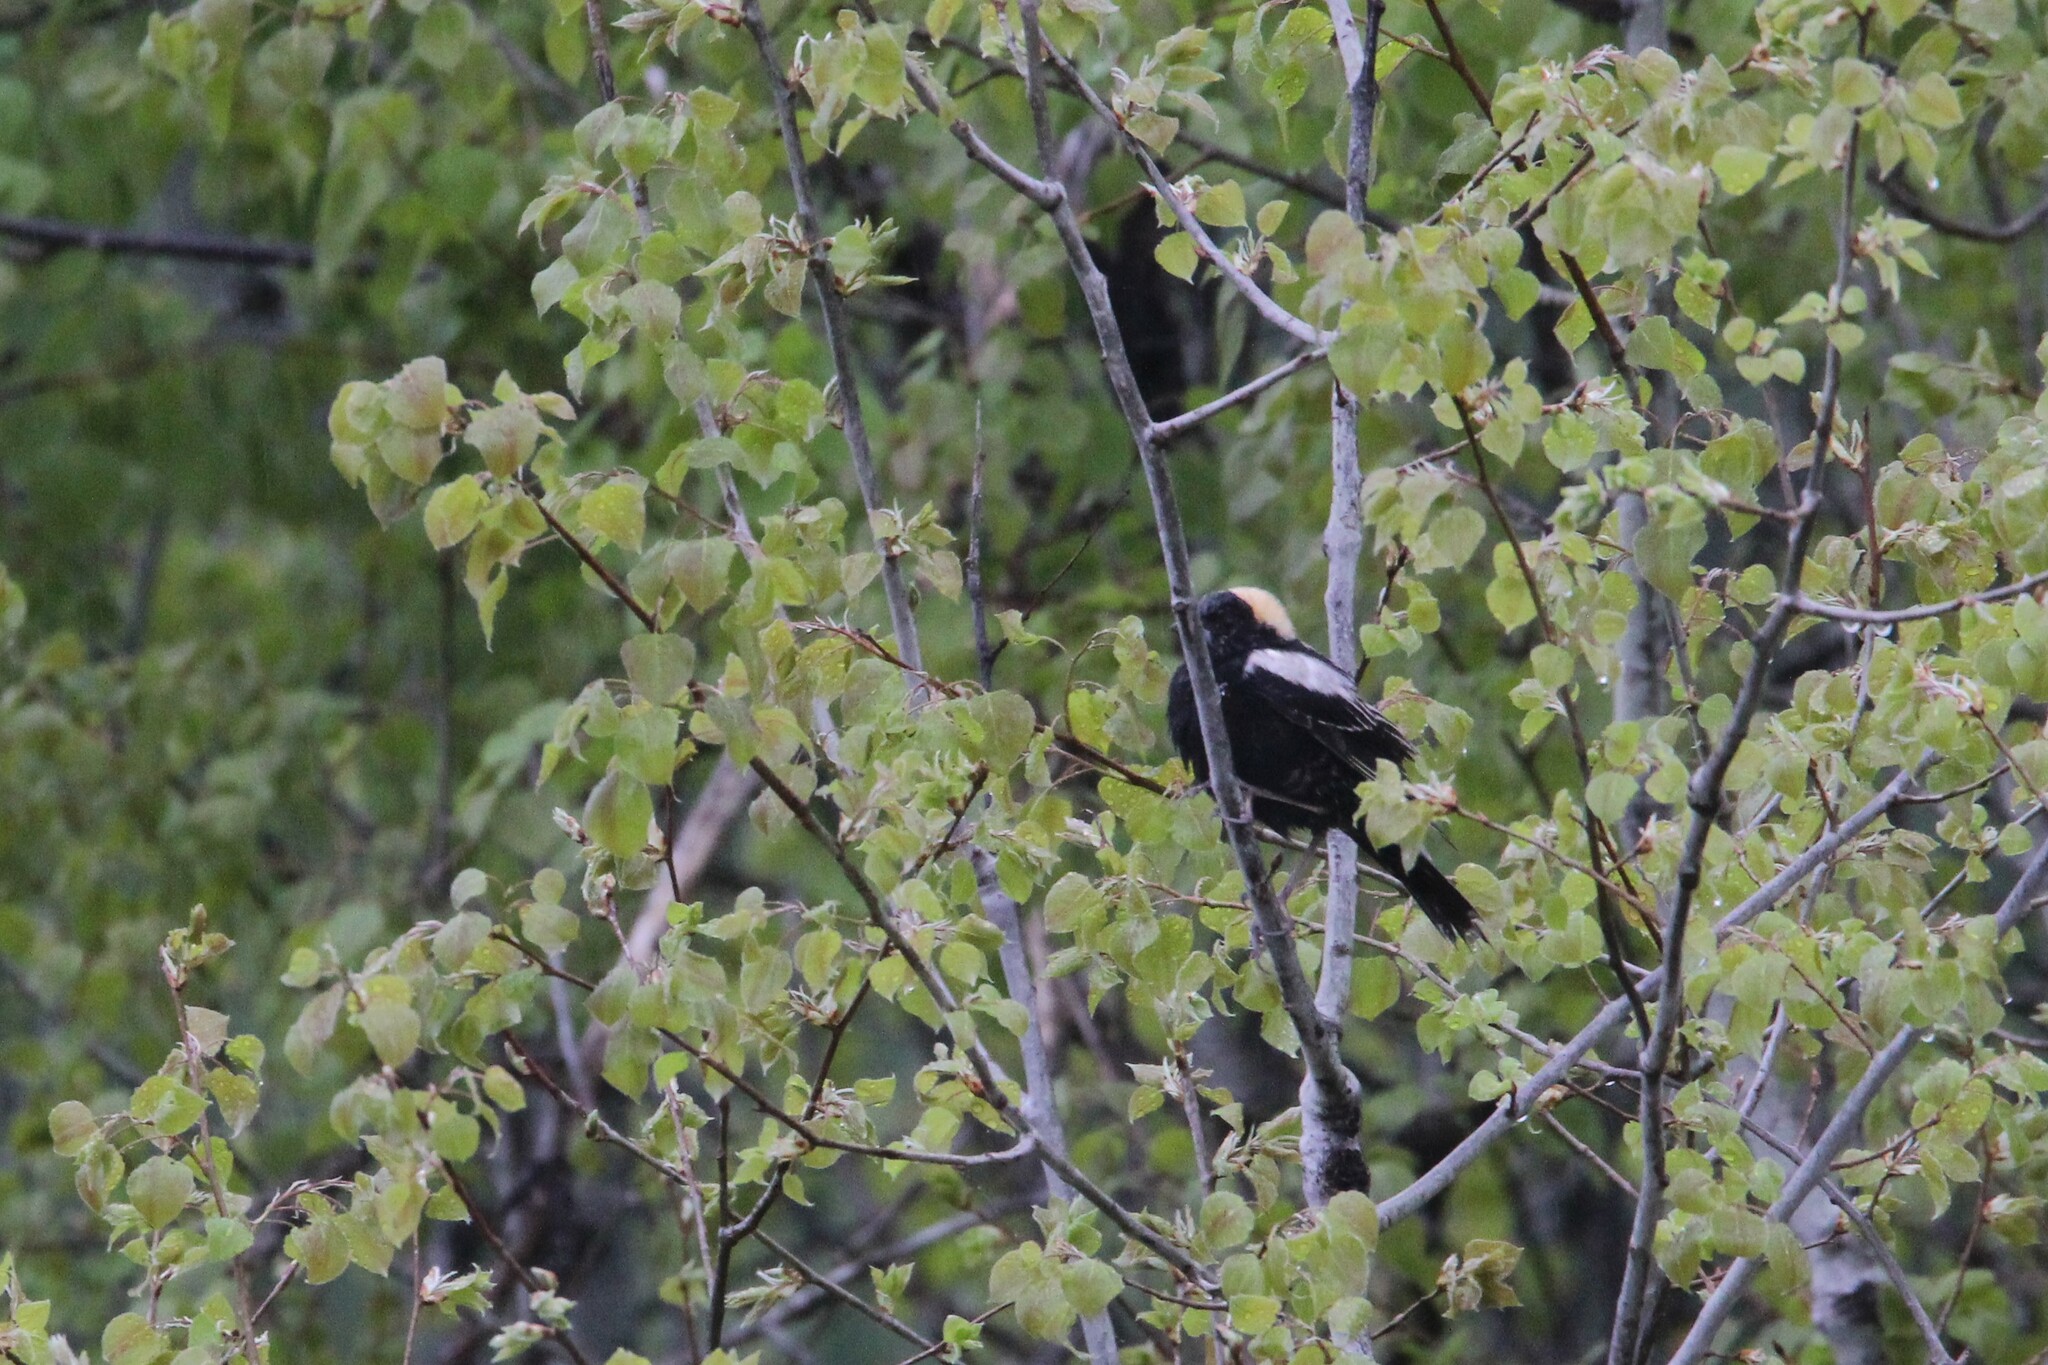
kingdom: Animalia
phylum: Chordata
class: Aves
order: Passeriformes
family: Icteridae
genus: Dolichonyx
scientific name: Dolichonyx oryzivorus
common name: Bobolink
